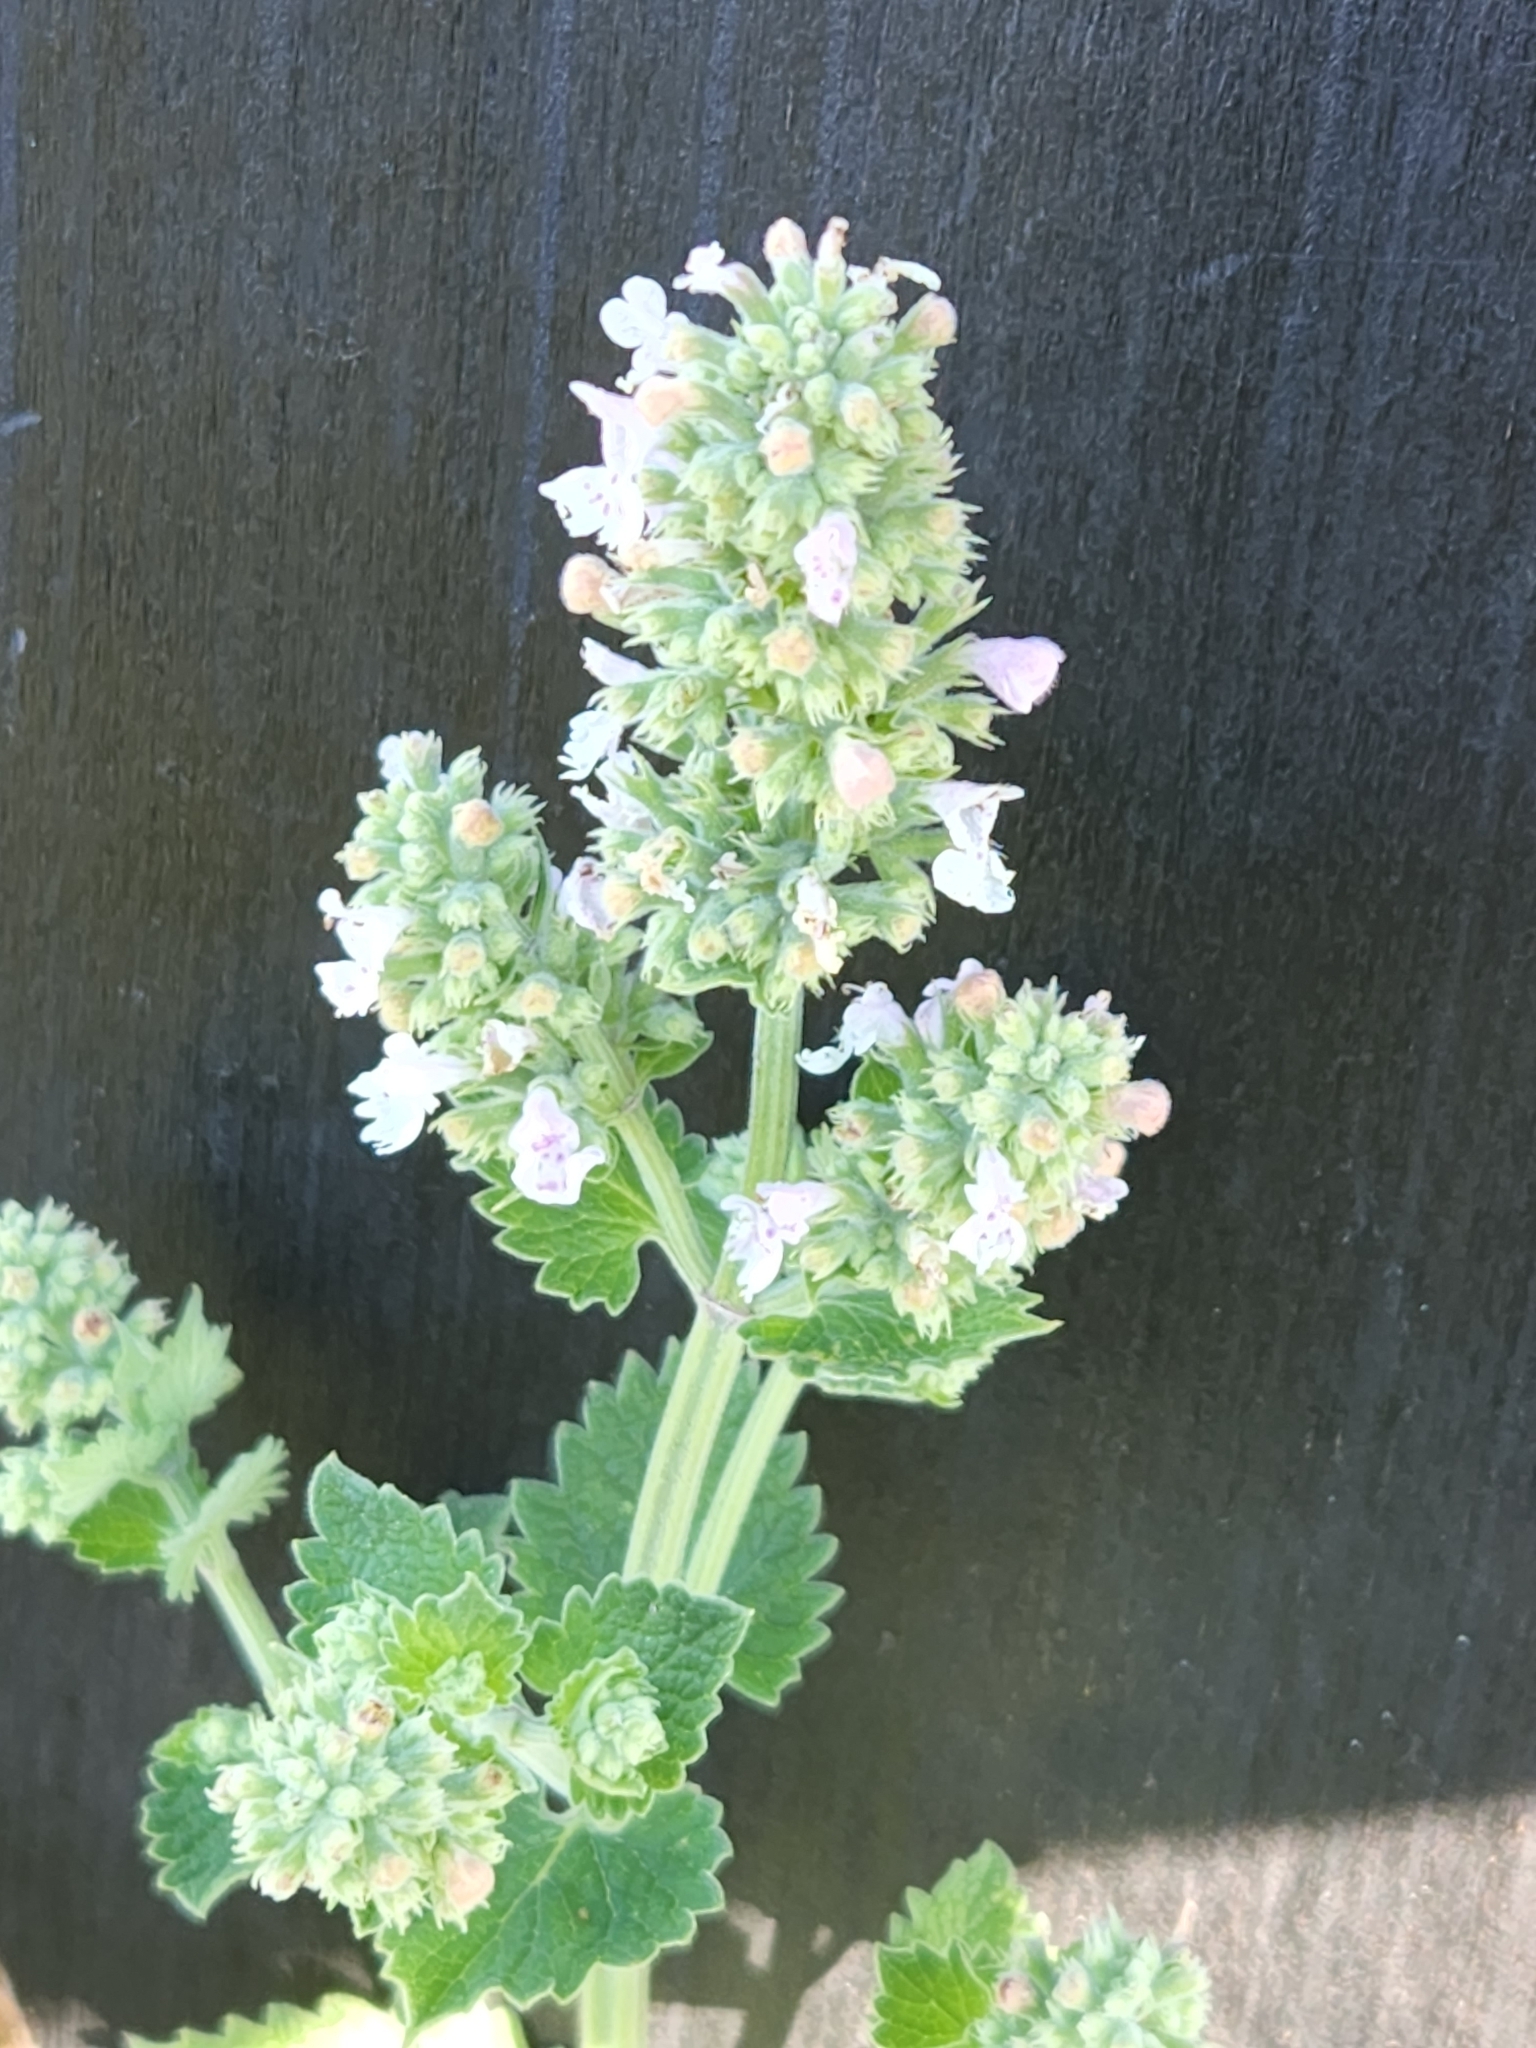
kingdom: Plantae
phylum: Tracheophyta
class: Magnoliopsida
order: Lamiales
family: Lamiaceae
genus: Nepeta
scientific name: Nepeta cataria
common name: Catnip
